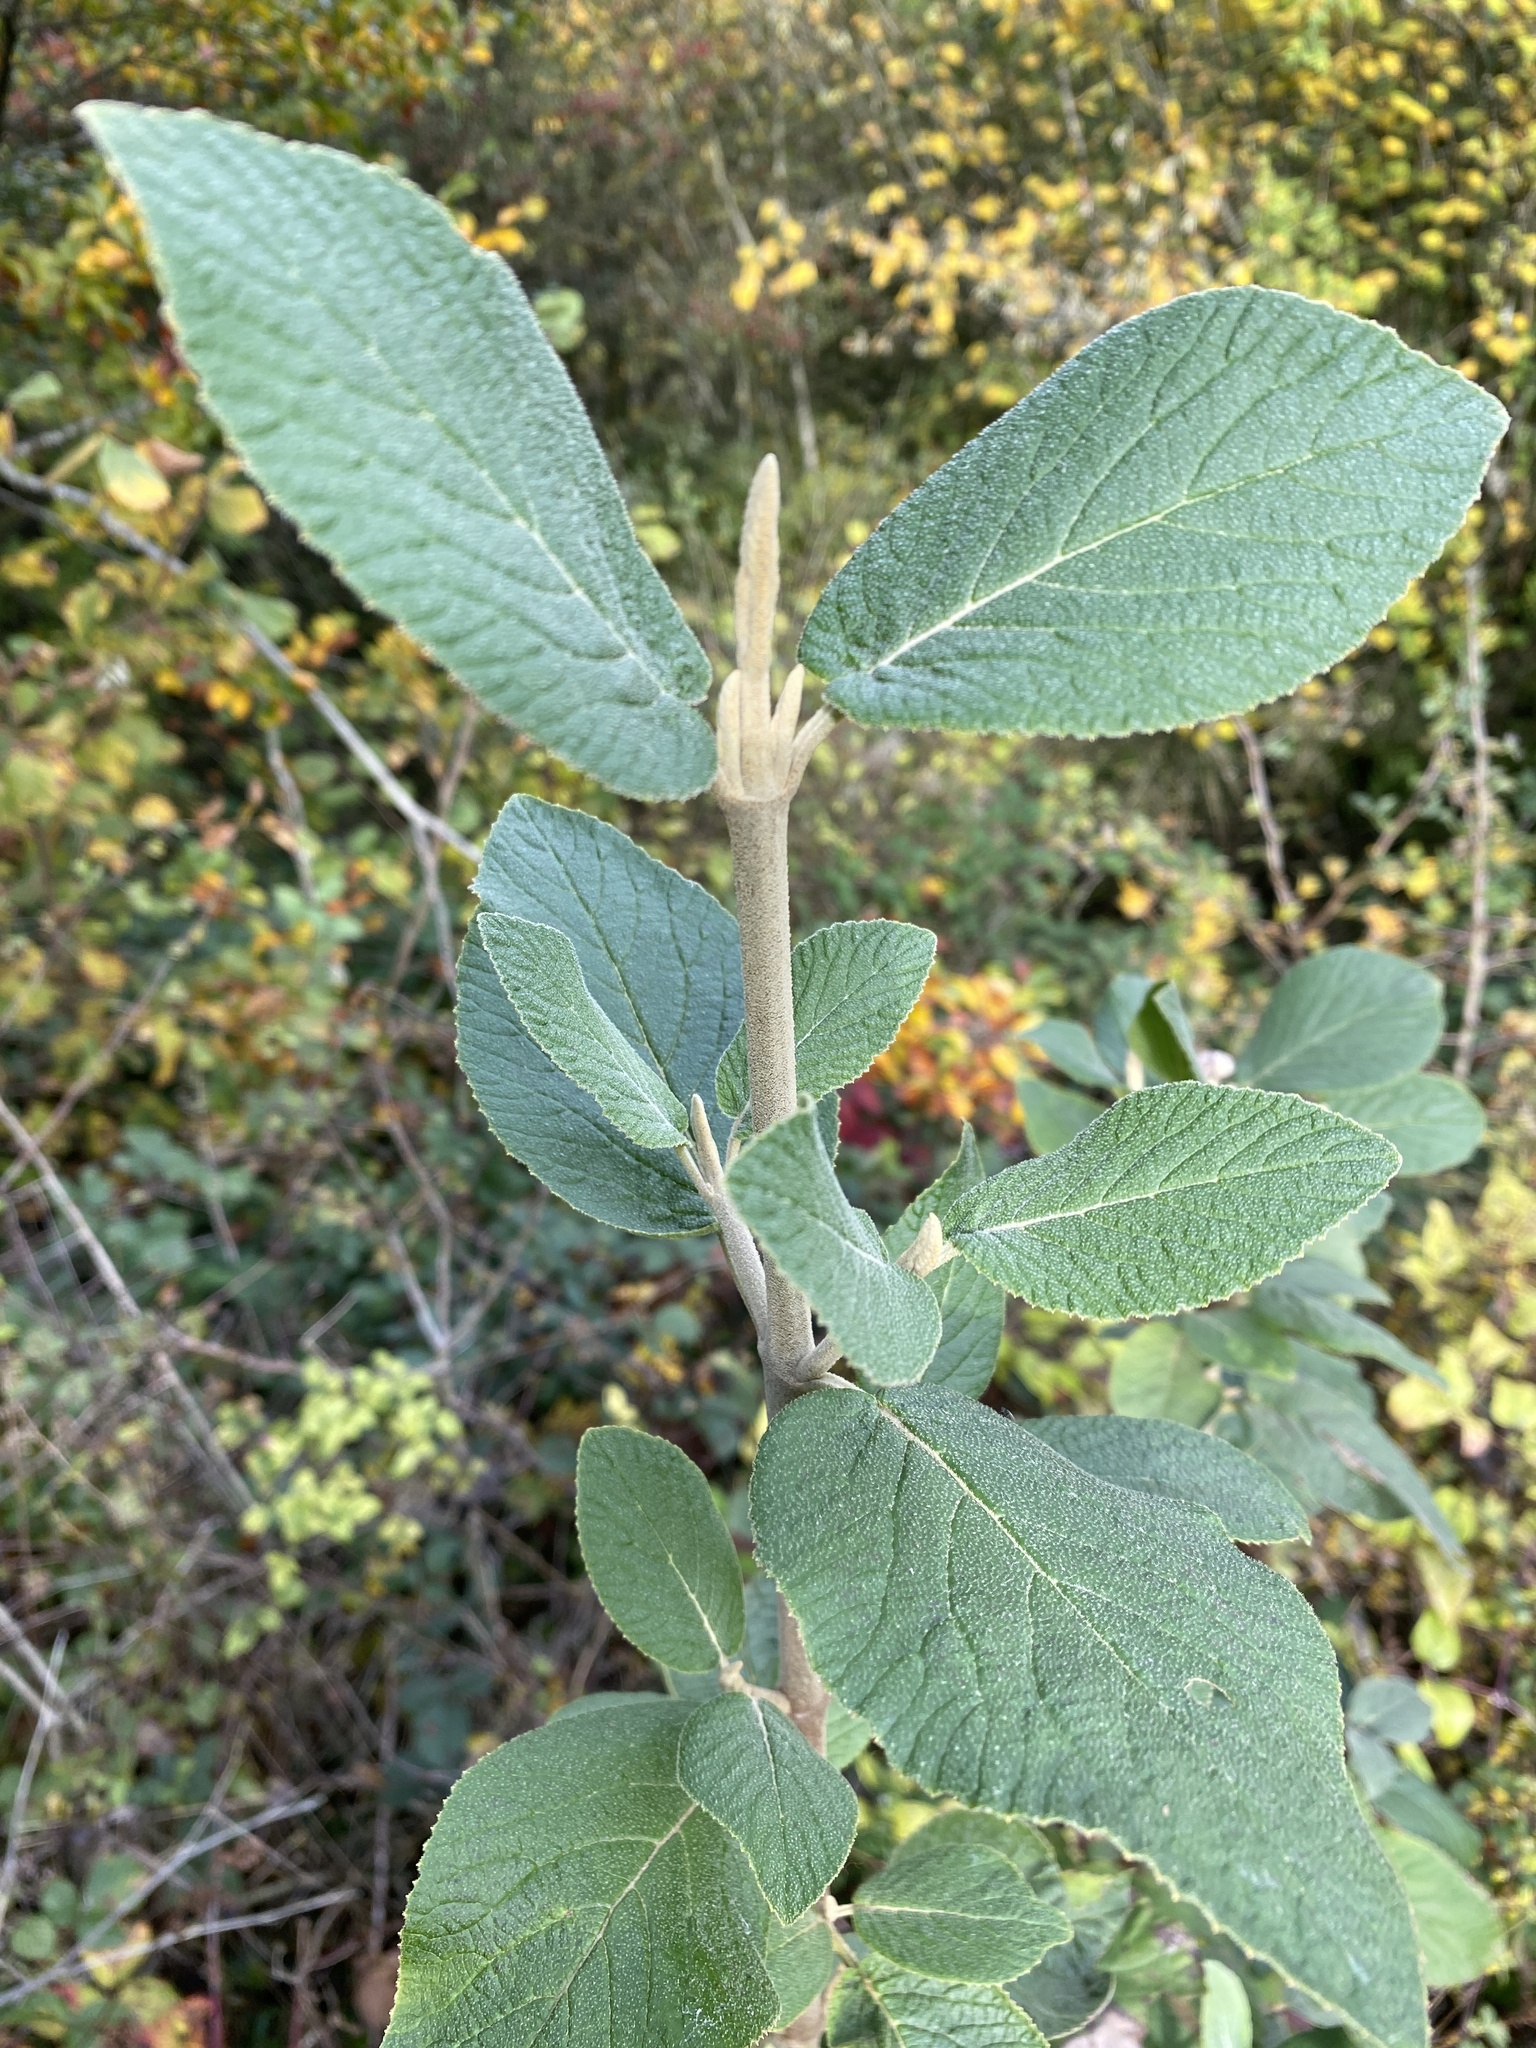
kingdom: Plantae
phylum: Tracheophyta
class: Magnoliopsida
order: Dipsacales
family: Viburnaceae
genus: Viburnum
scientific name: Viburnum lantana
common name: Wayfaring tree
